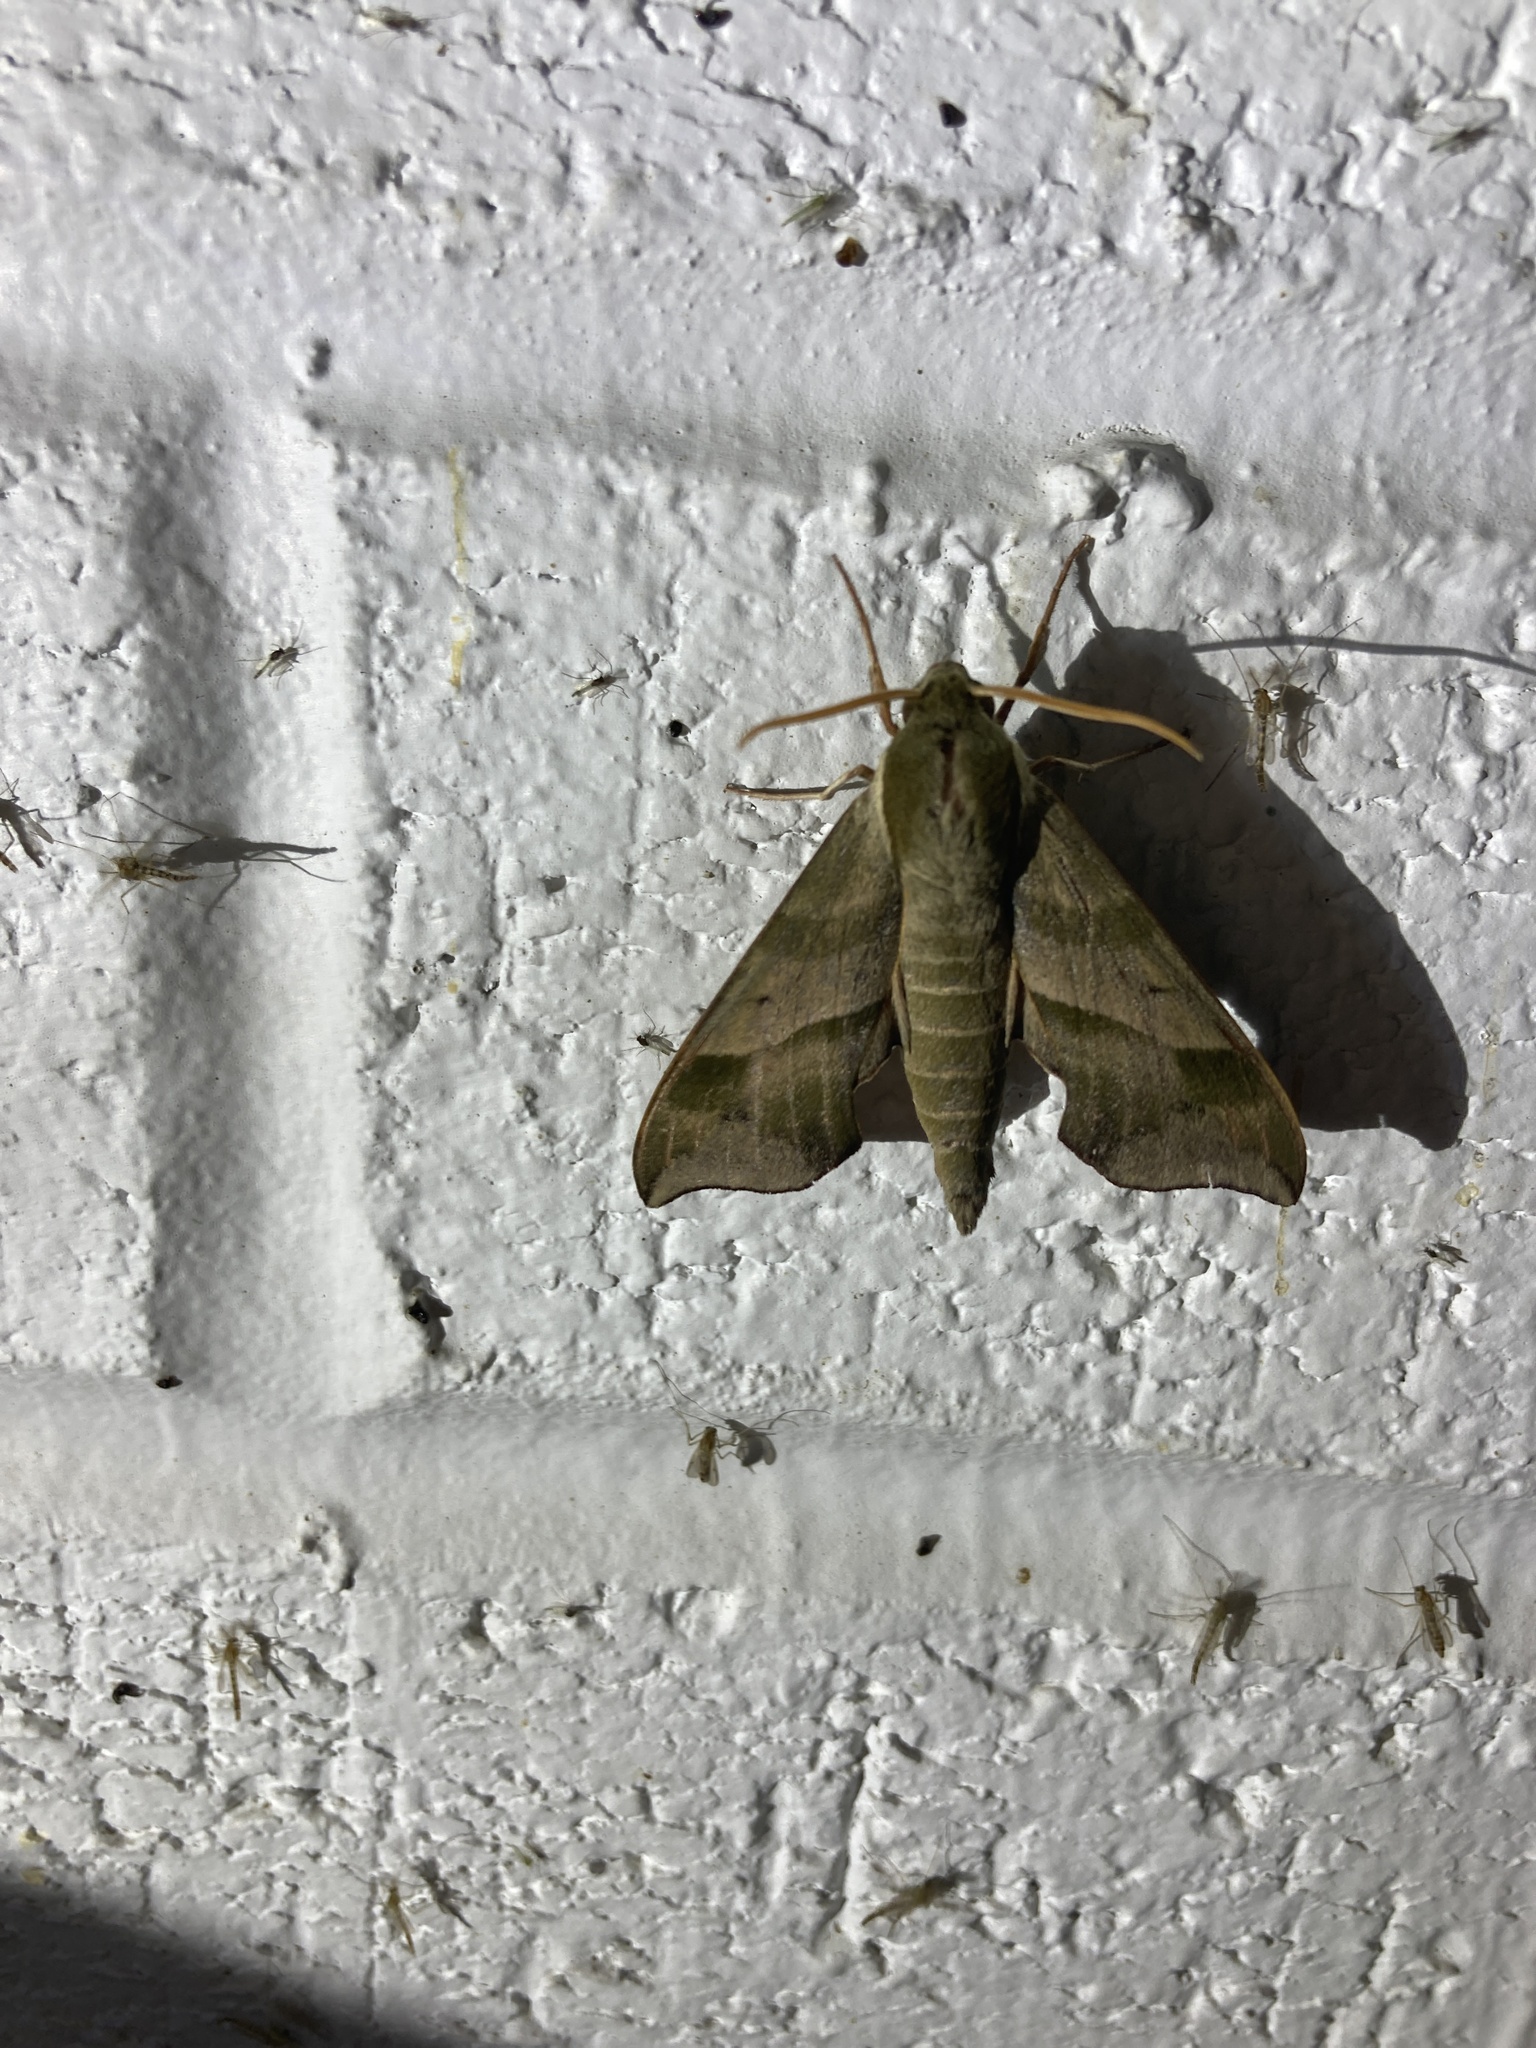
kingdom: Animalia
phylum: Arthropoda
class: Insecta
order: Lepidoptera
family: Sphingidae
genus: Darapsa
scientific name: Darapsa myron
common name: Hog sphinx
